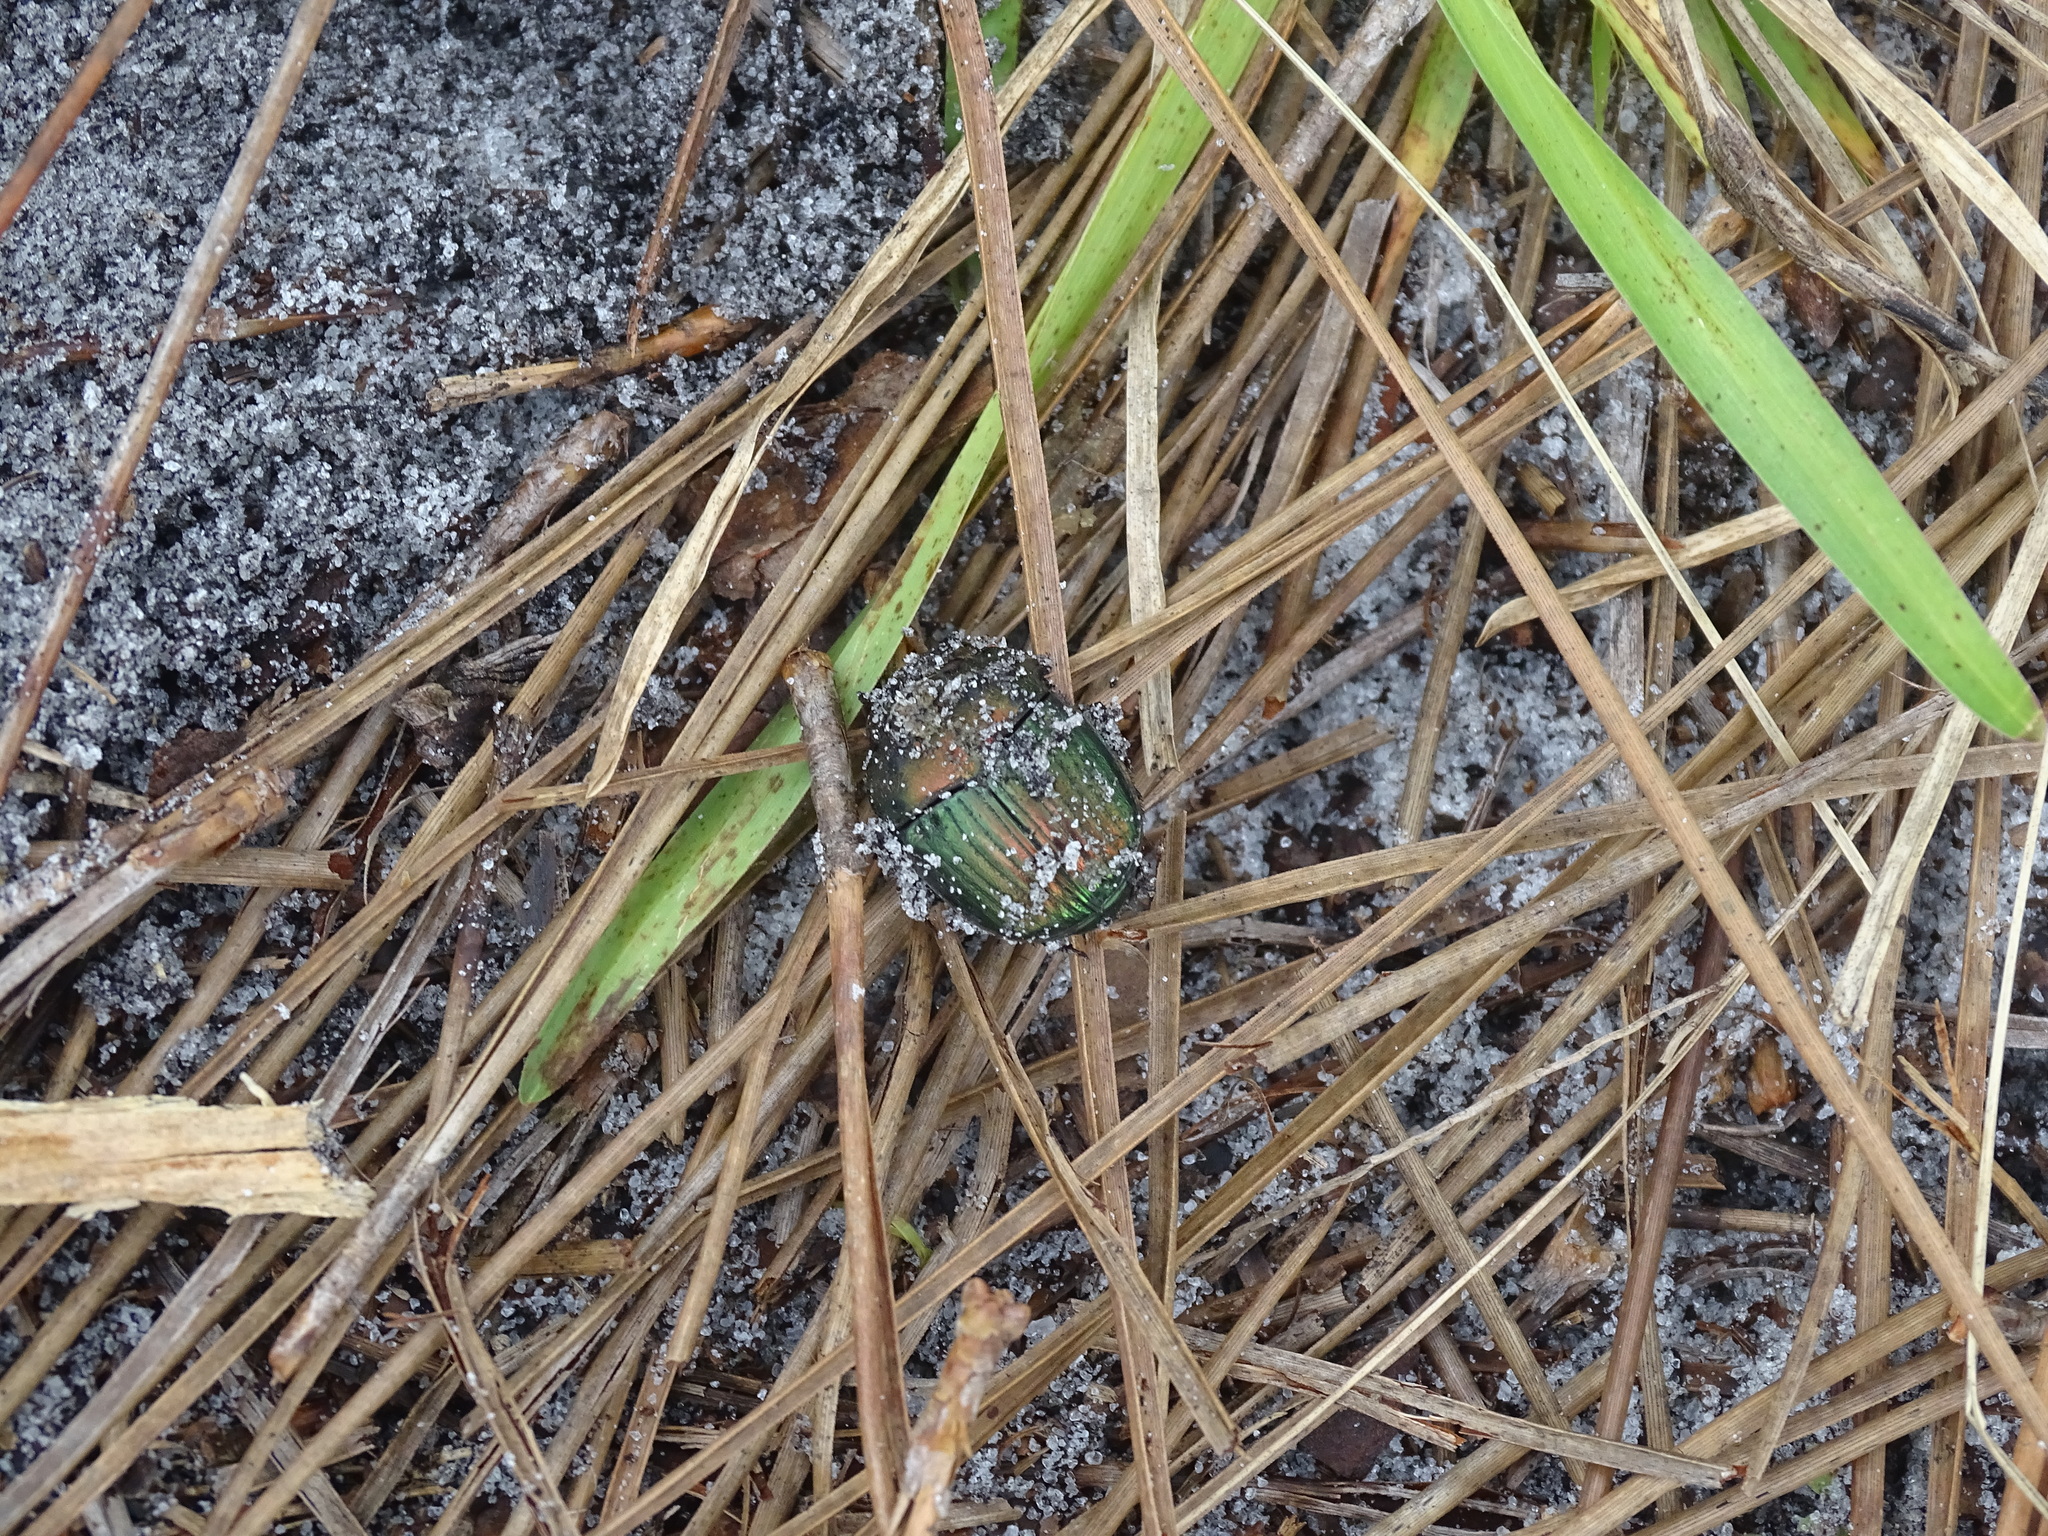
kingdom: Animalia
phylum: Arthropoda
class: Insecta
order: Coleoptera
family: Scarabaeidae
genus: Phanaeus
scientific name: Phanaeus igneus
